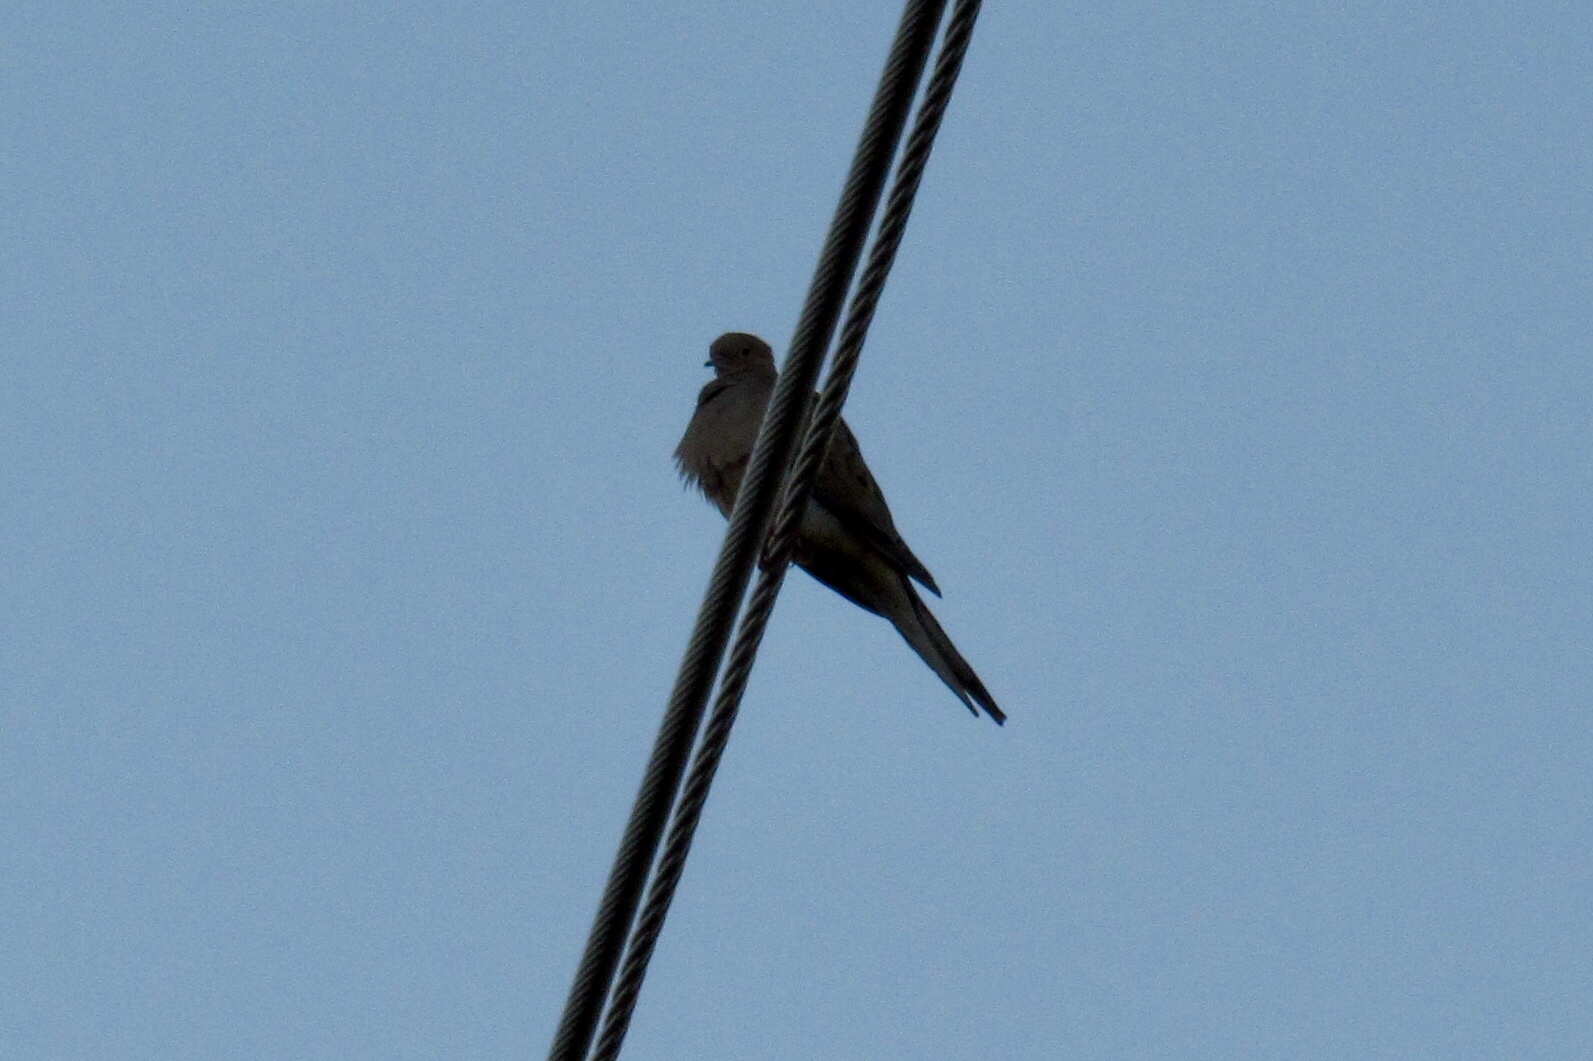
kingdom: Animalia
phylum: Chordata
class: Aves
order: Columbiformes
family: Columbidae
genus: Zenaida
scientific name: Zenaida macroura
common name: Mourning dove
